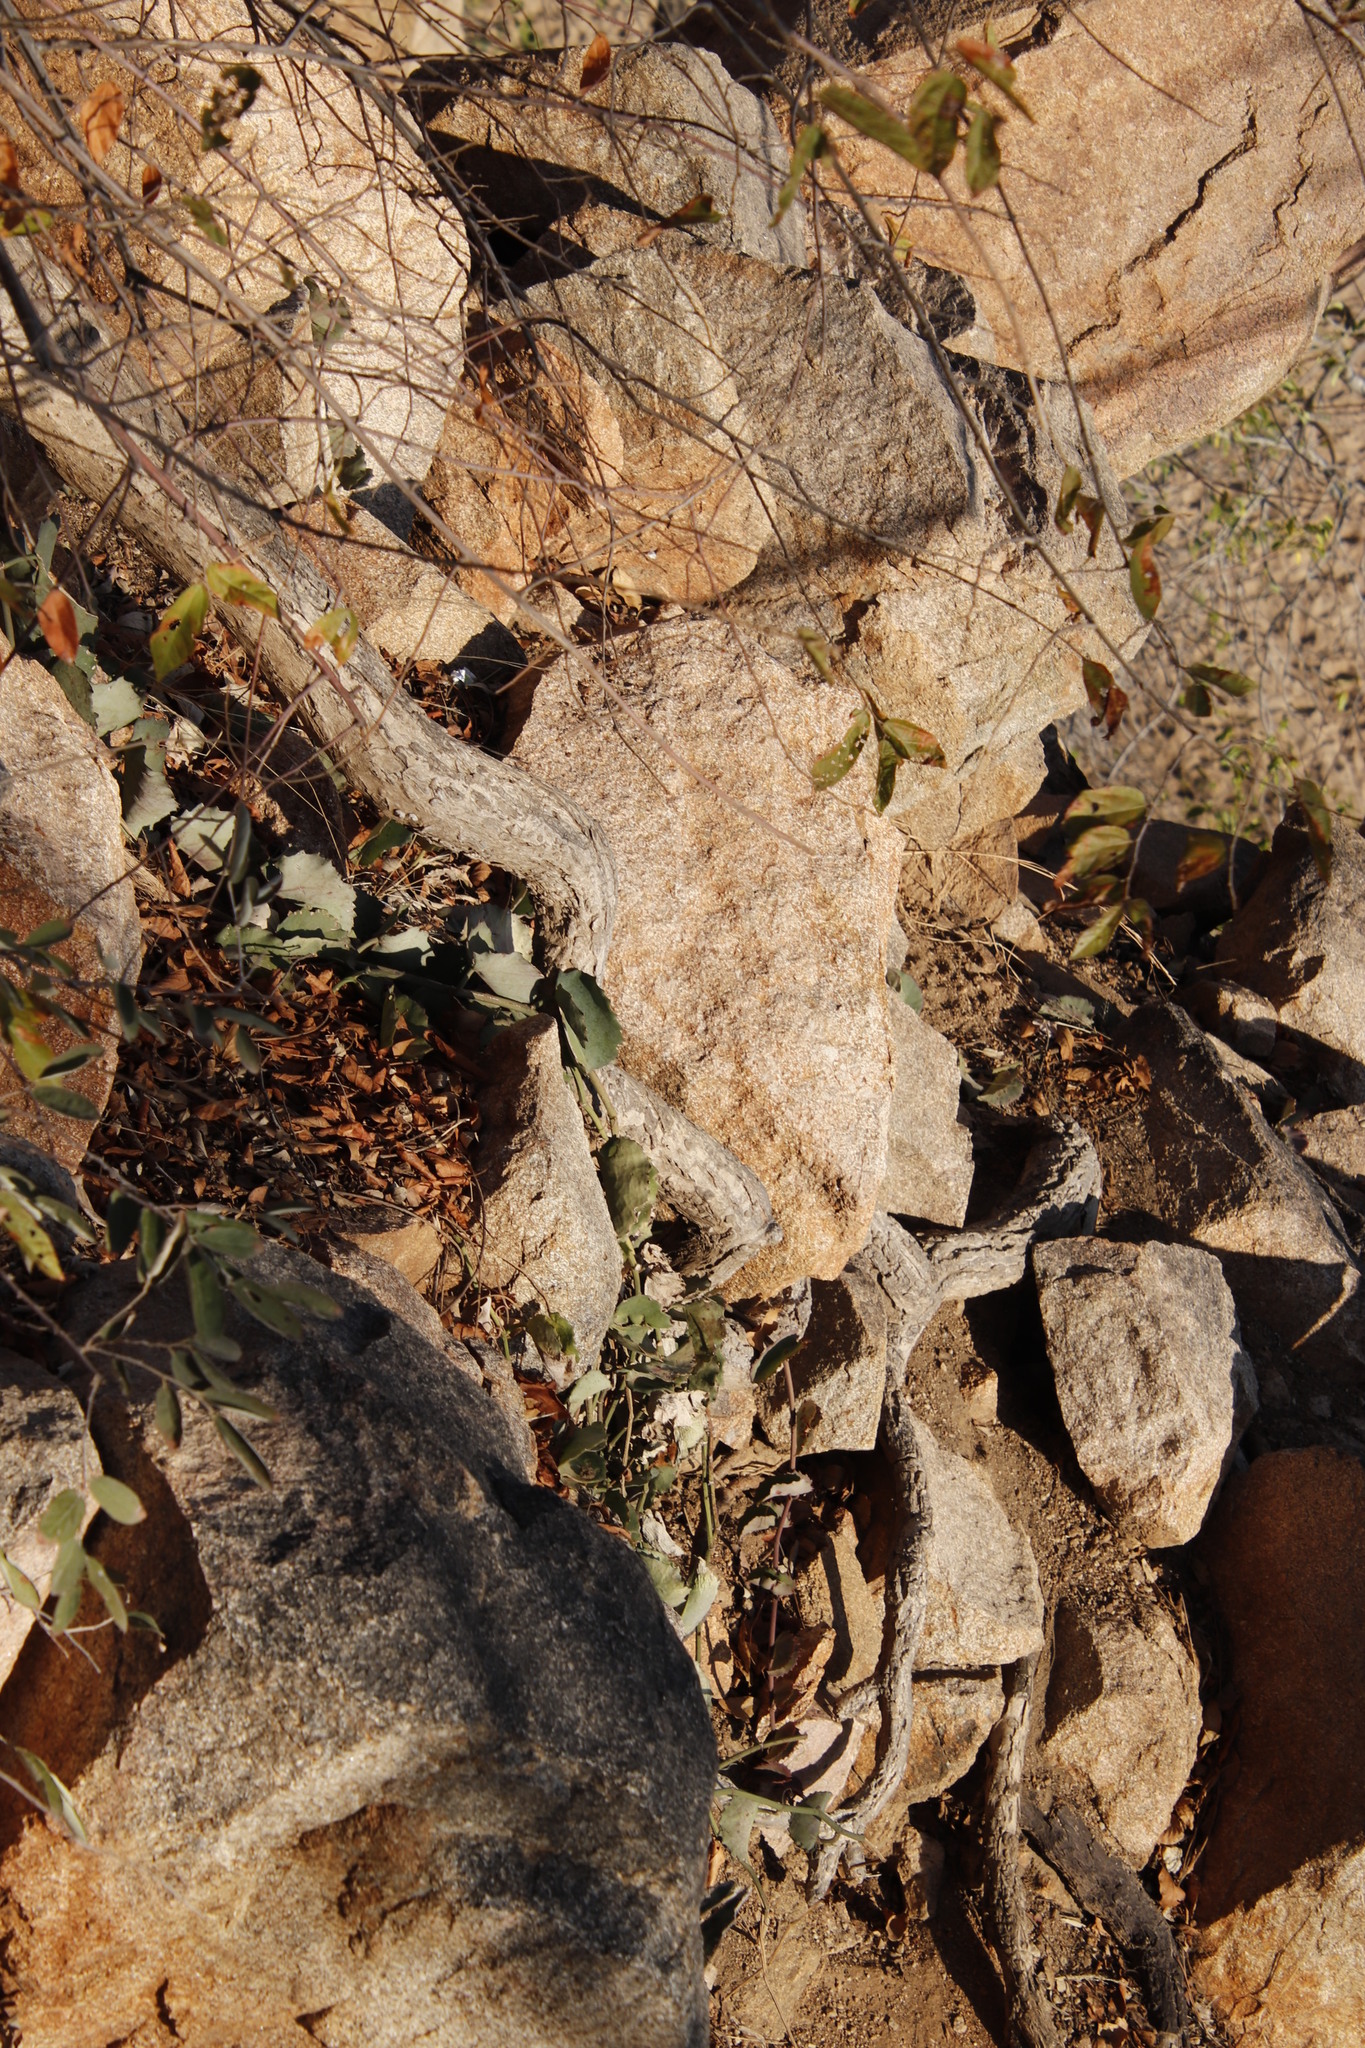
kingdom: Plantae
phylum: Tracheophyta
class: Magnoliopsida
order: Vitales
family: Vitaceae
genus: Cissus
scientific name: Cissus rotundifolia
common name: Arabian wax cissus
